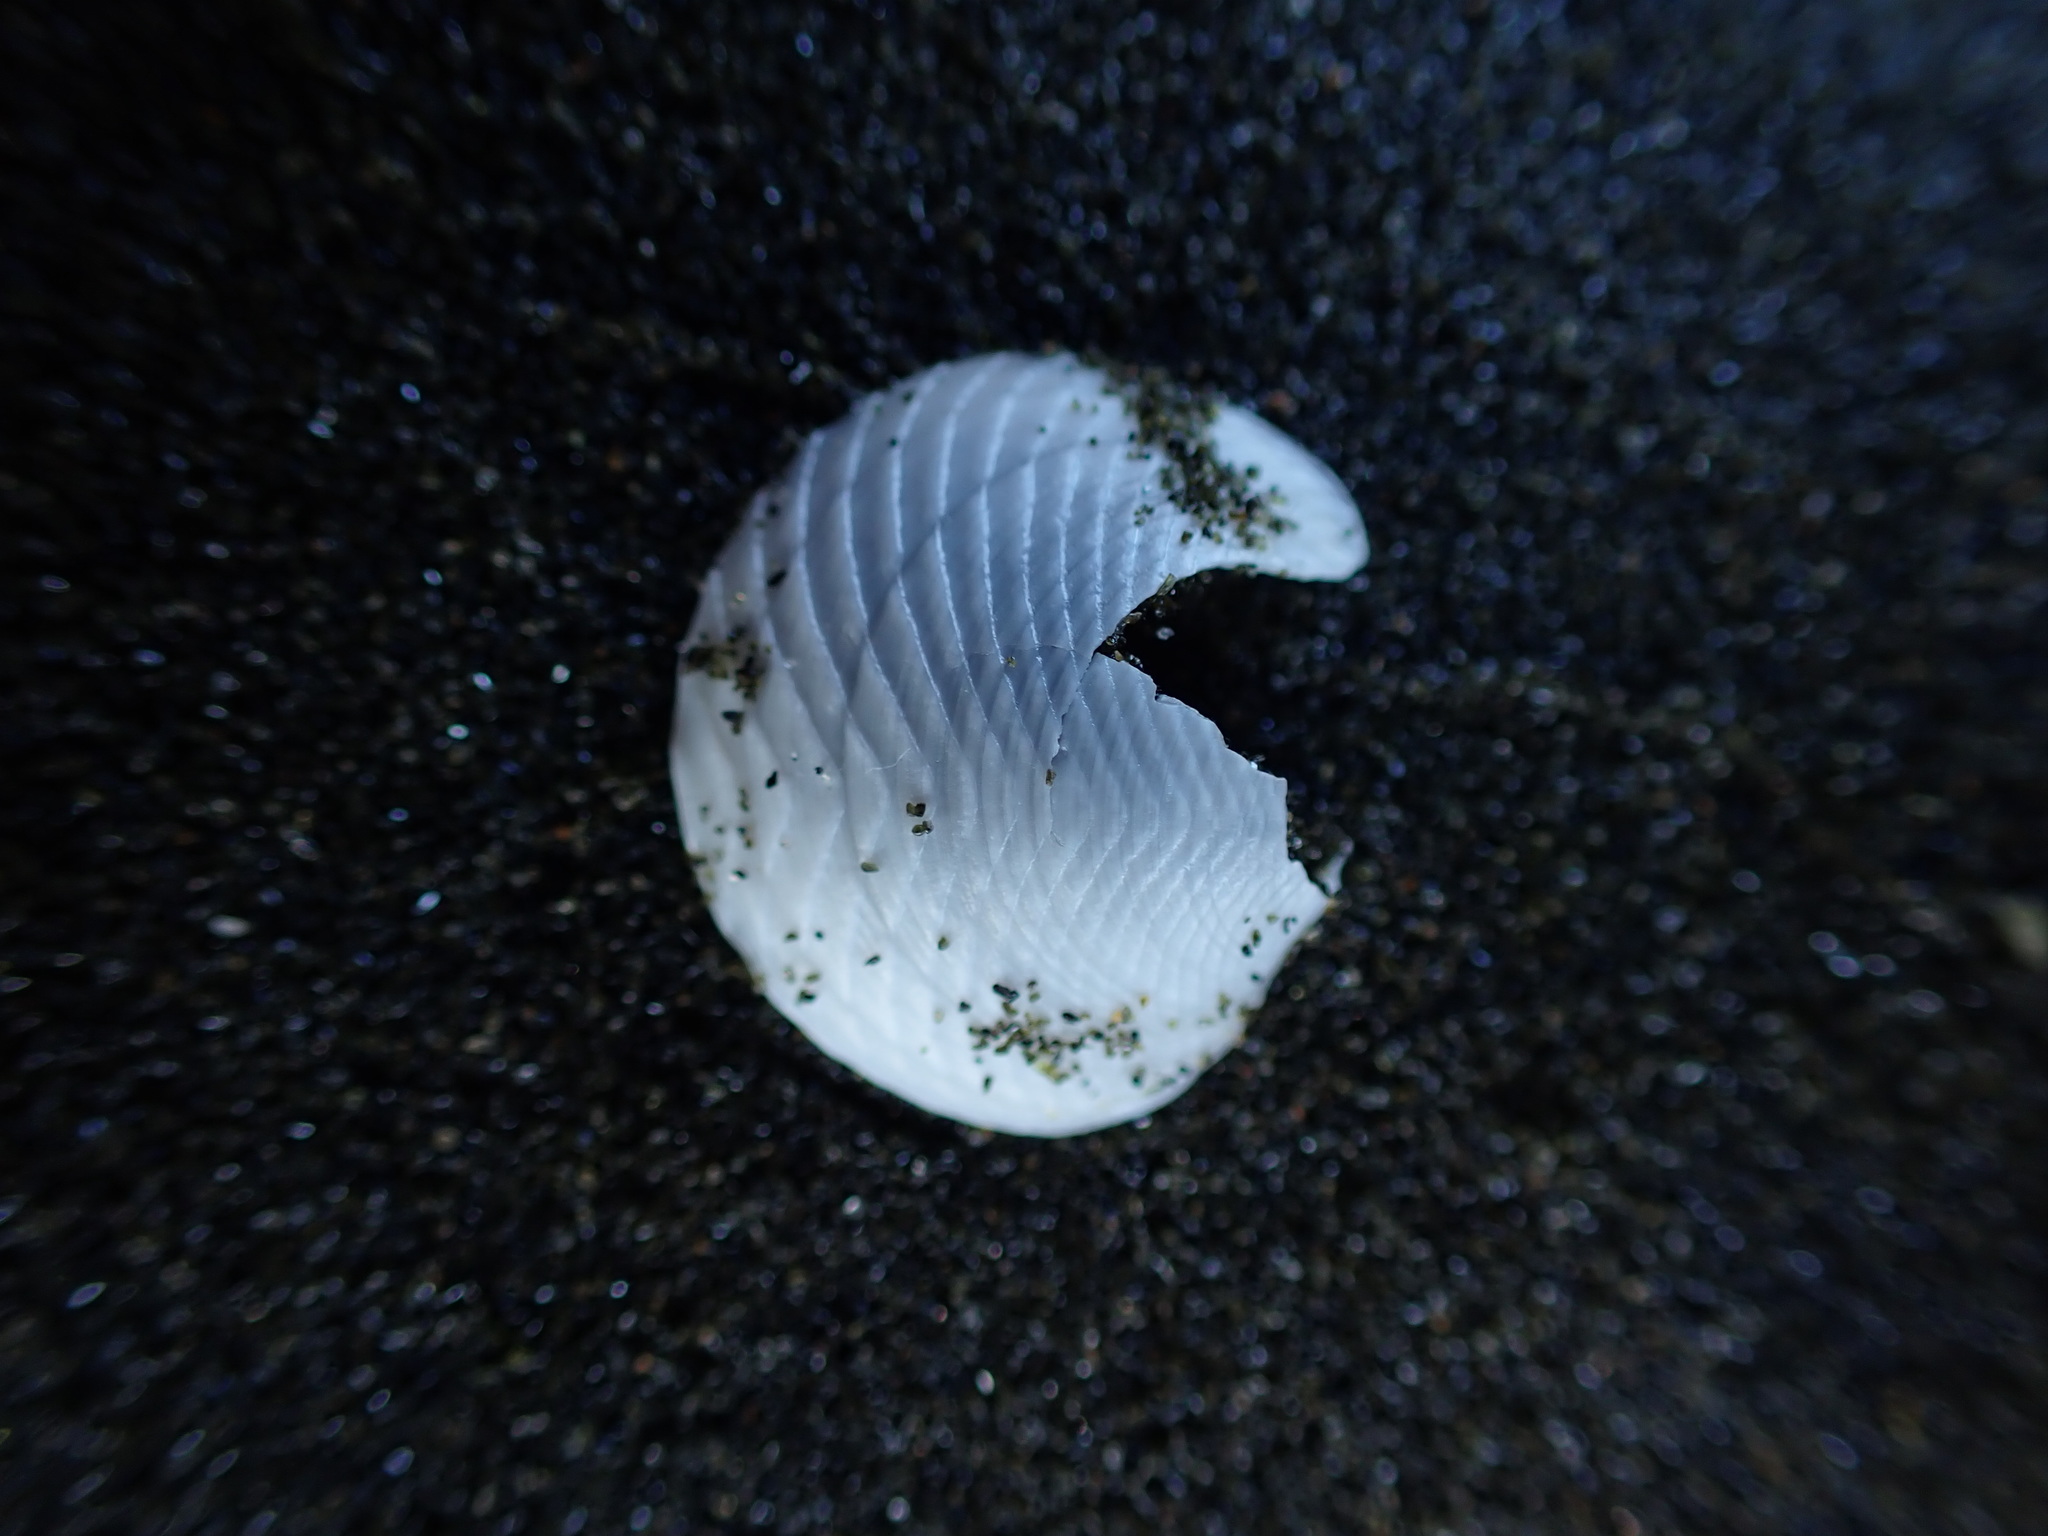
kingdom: Animalia
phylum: Mollusca
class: Bivalvia
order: Lucinida
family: Lucinidae
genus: Divalucina
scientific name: Divalucina cumingi
